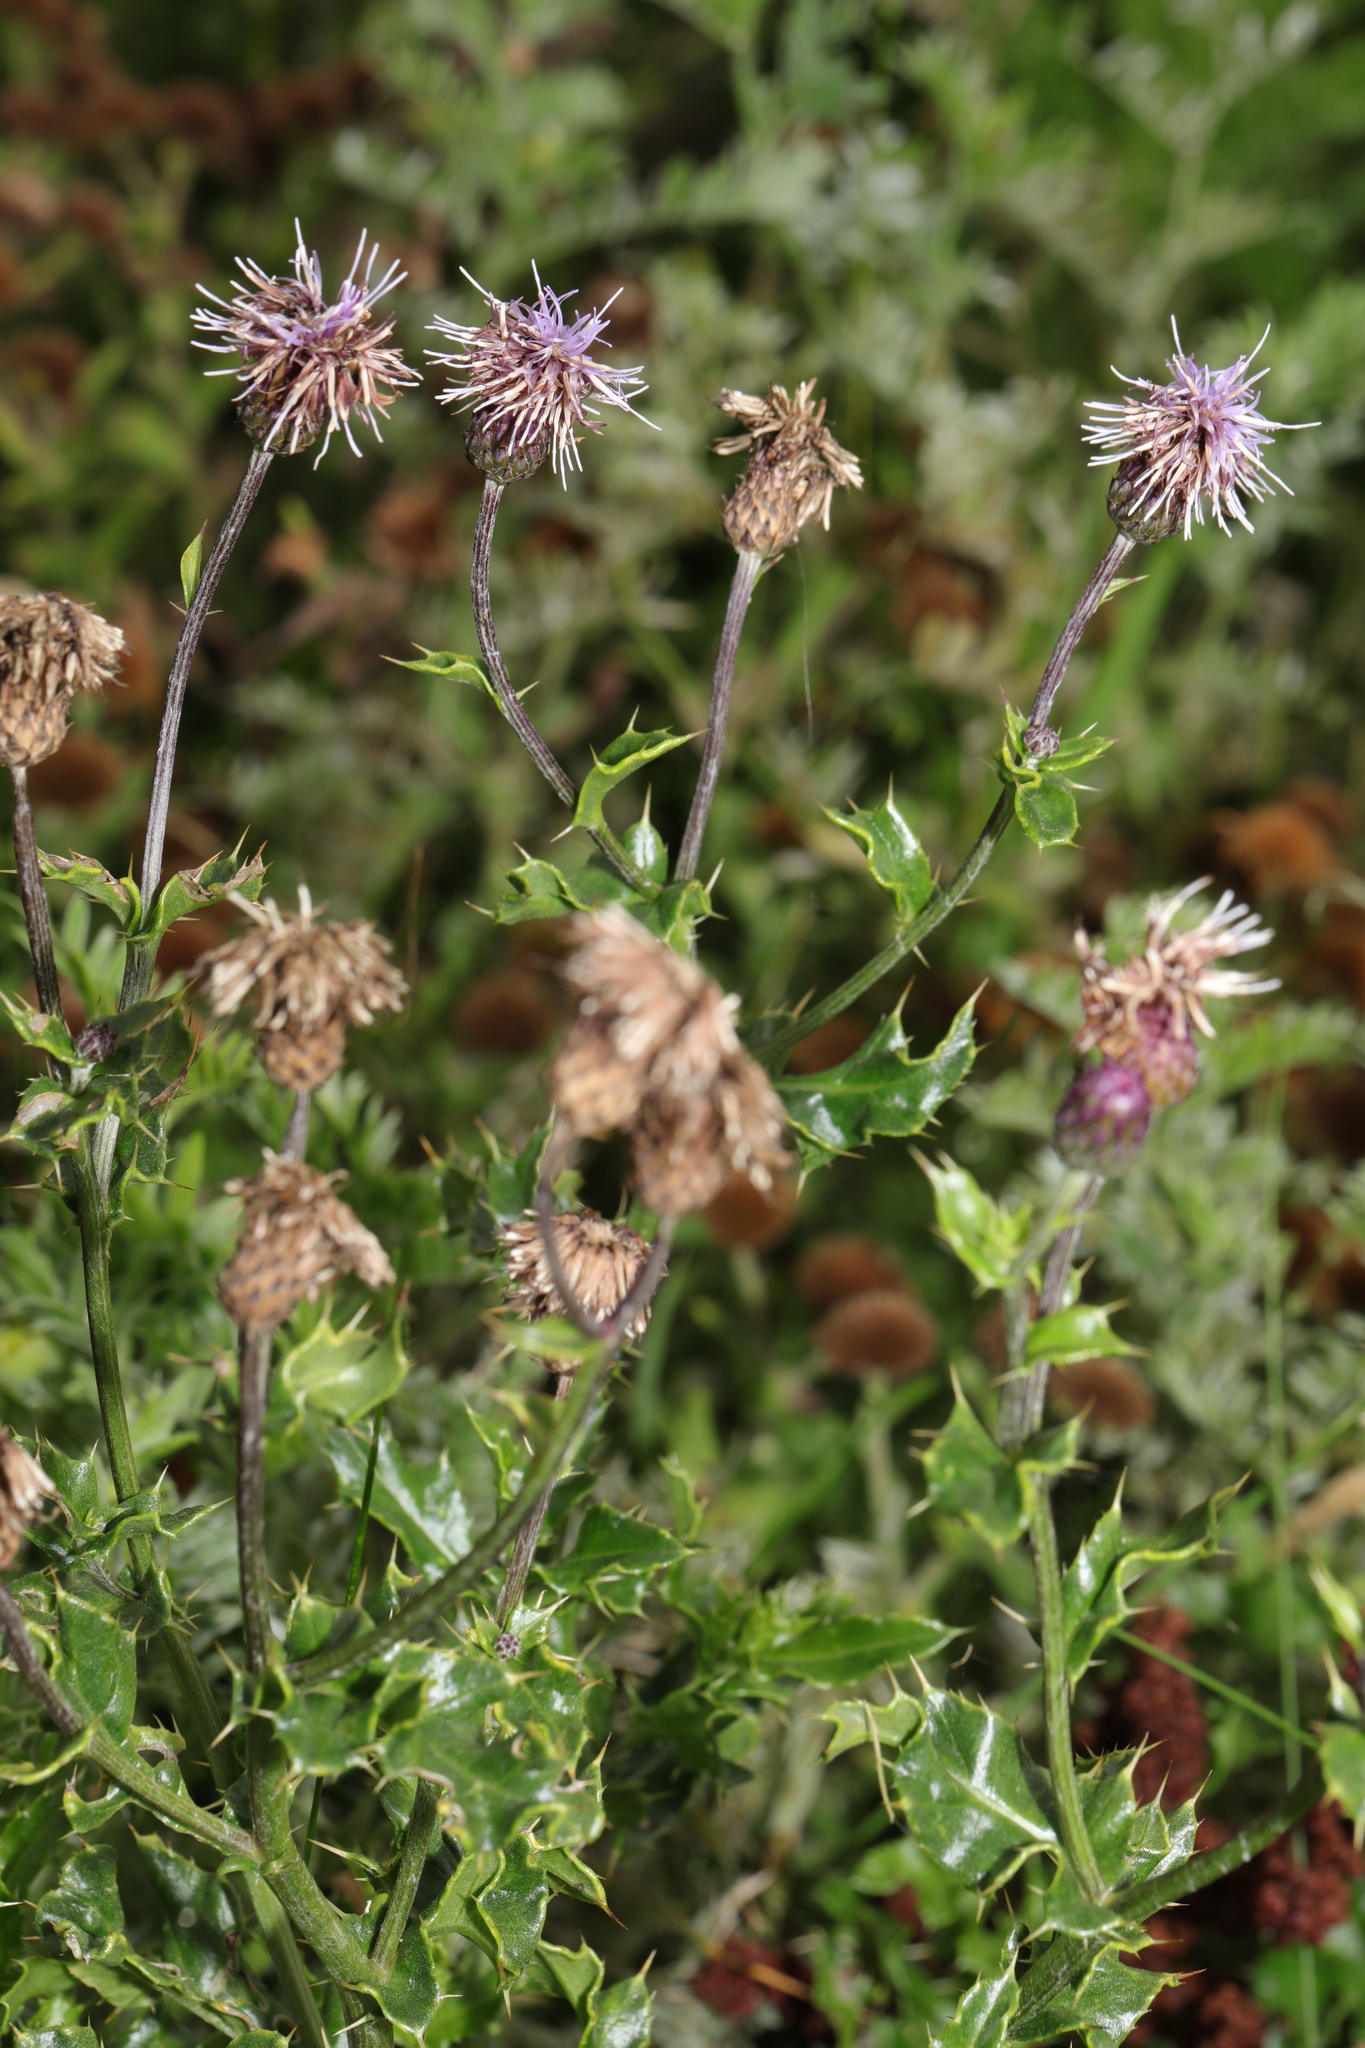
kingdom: Plantae
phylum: Tracheophyta
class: Magnoliopsida
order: Asterales
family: Asteraceae
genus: Cirsium
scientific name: Cirsium arvense
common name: Creeping thistle
